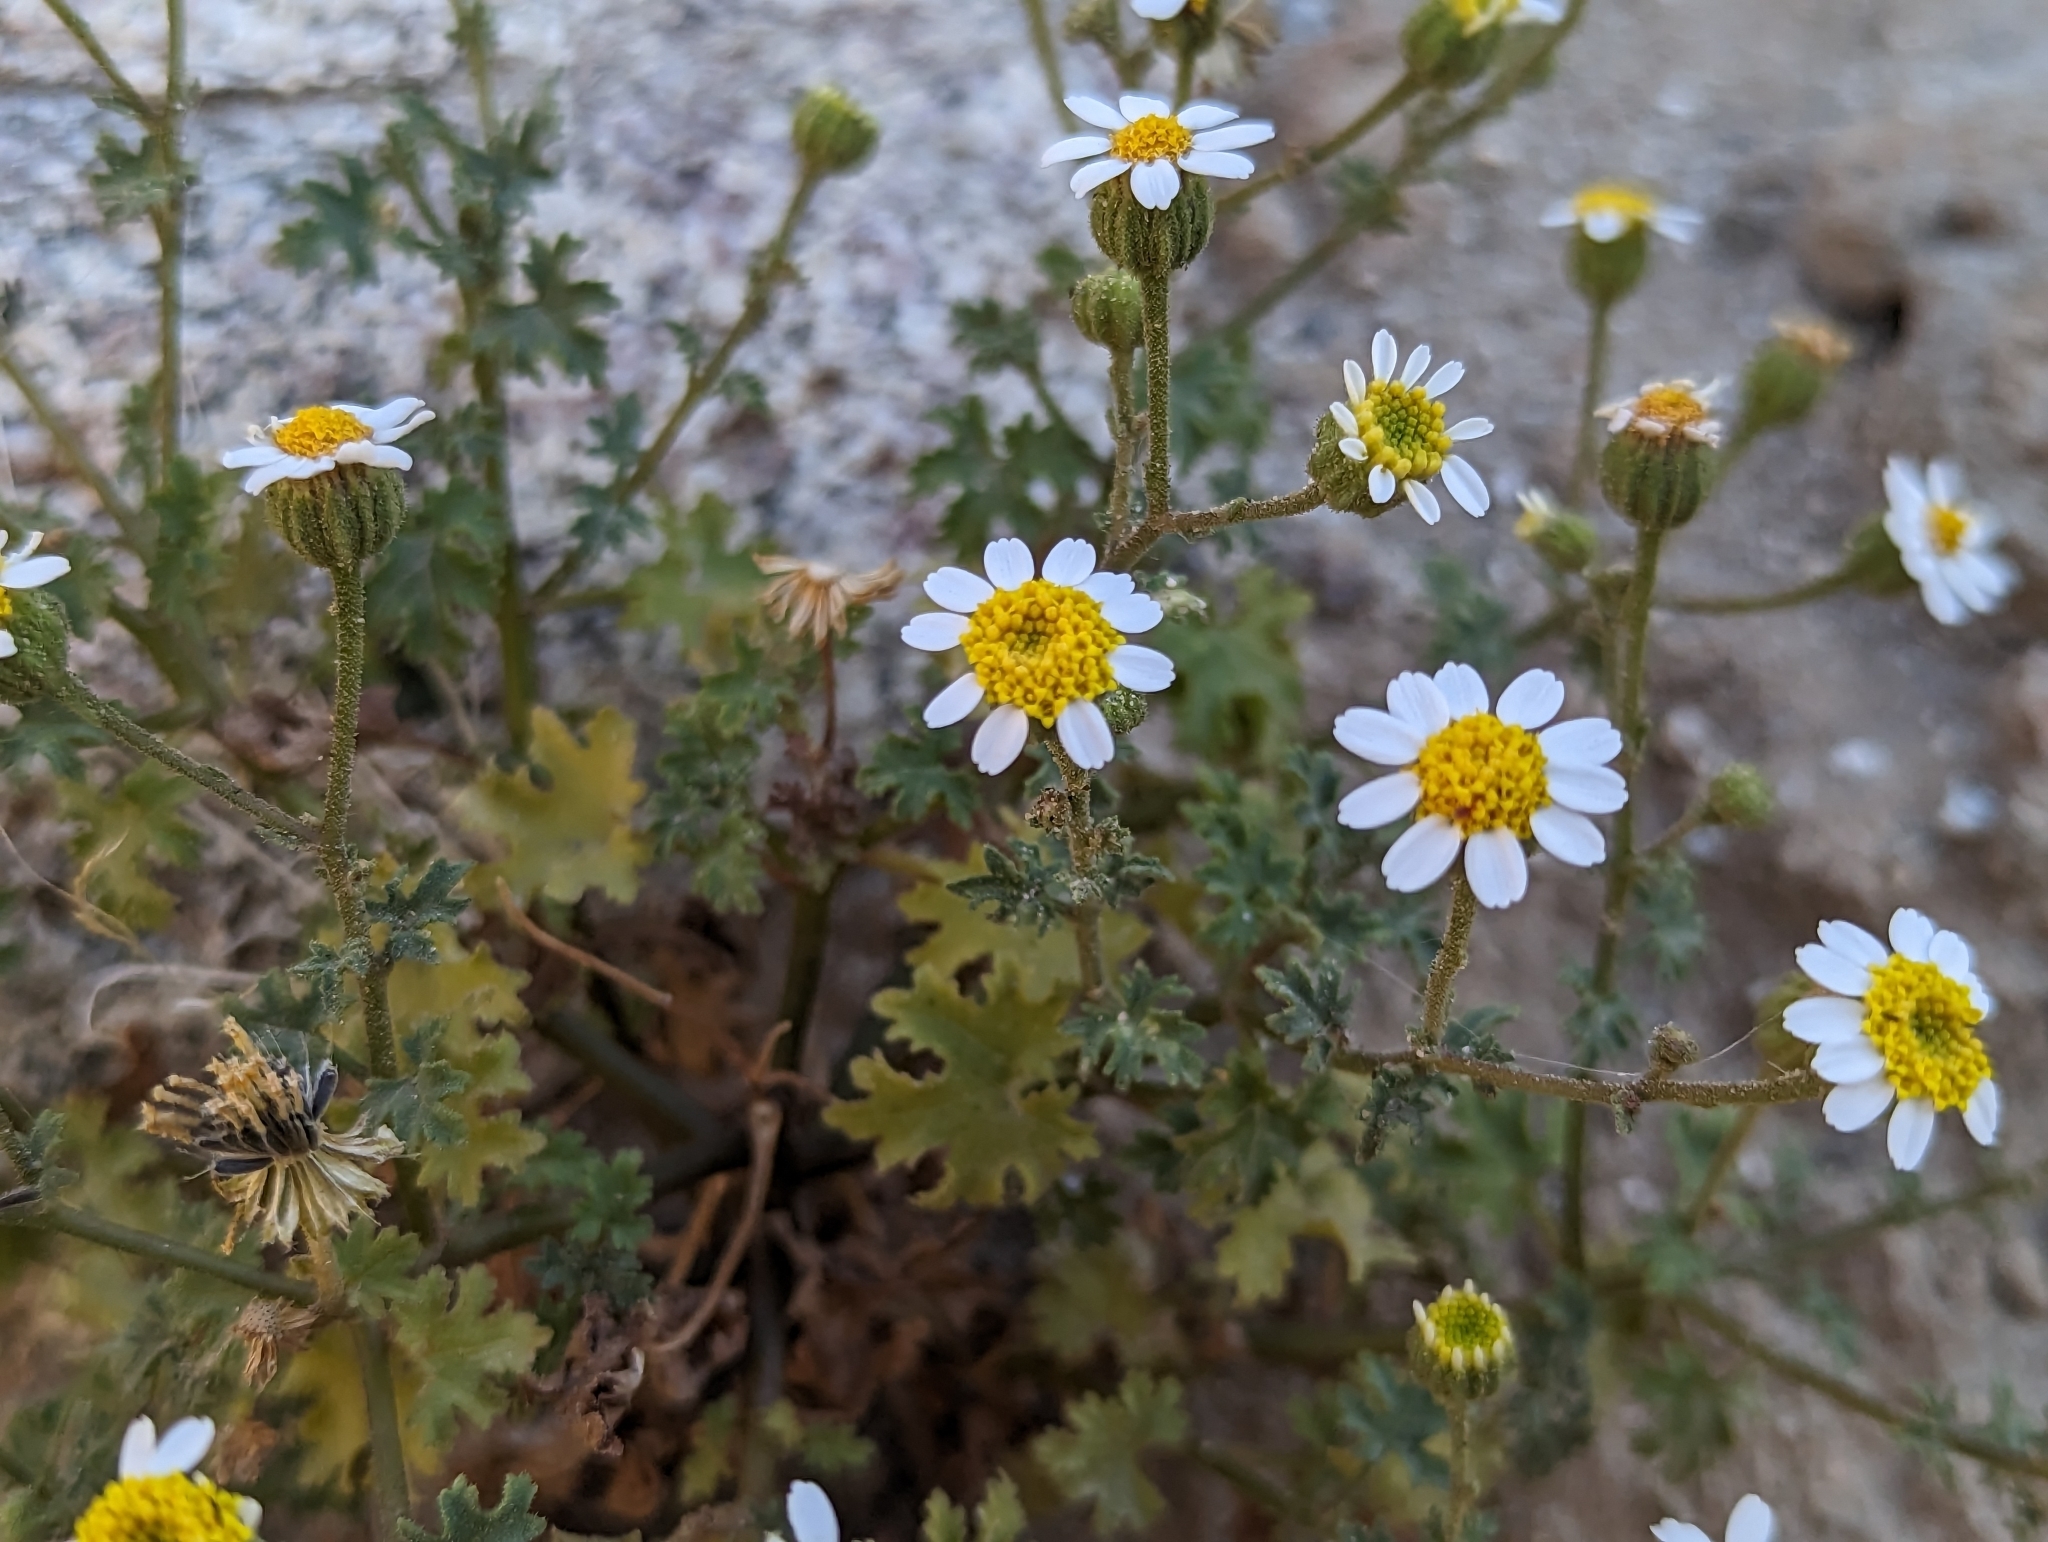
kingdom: Plantae
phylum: Tracheophyta
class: Magnoliopsida
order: Asterales
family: Asteraceae
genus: Laphamia
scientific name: Laphamia emoryi
